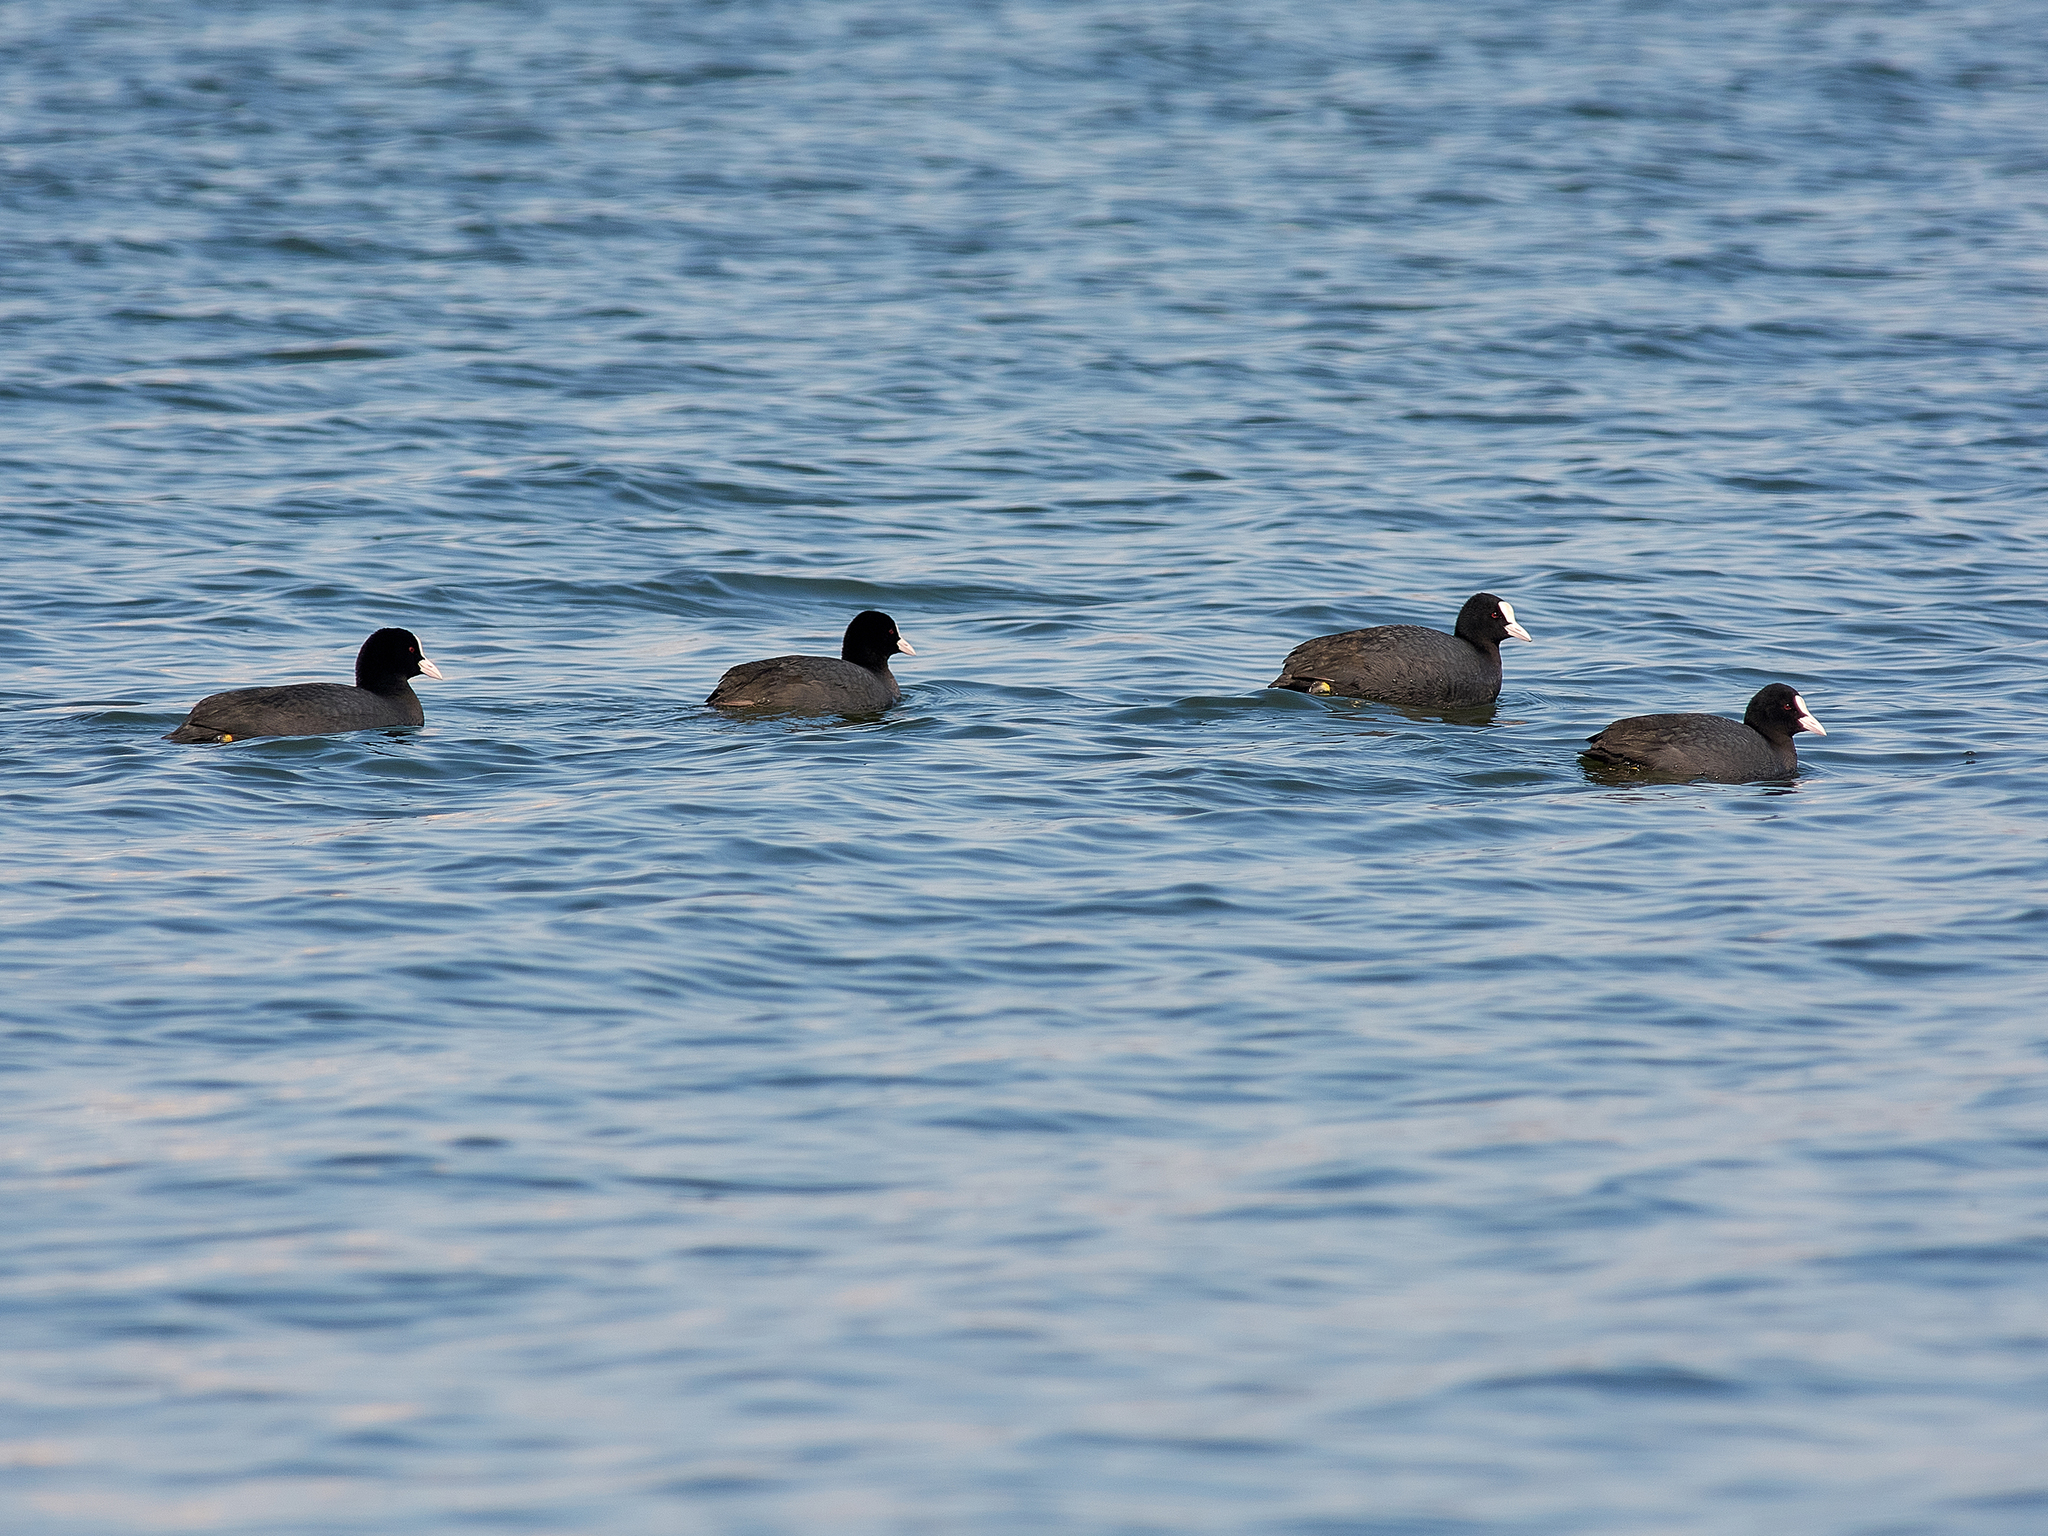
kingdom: Animalia
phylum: Chordata
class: Aves
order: Gruiformes
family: Rallidae
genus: Fulica
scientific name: Fulica atra
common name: Eurasian coot
